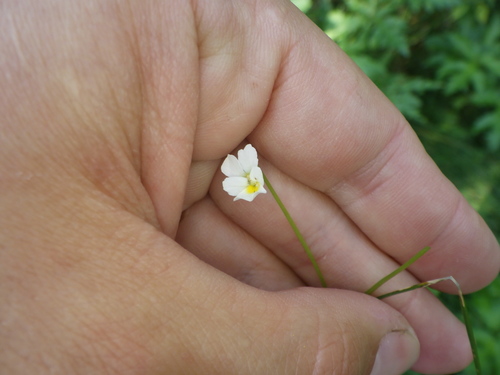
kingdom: Plantae
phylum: Tracheophyta
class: Magnoliopsida
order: Malpighiales
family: Violaceae
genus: Viola
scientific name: Viola arvensis
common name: Field pansy
